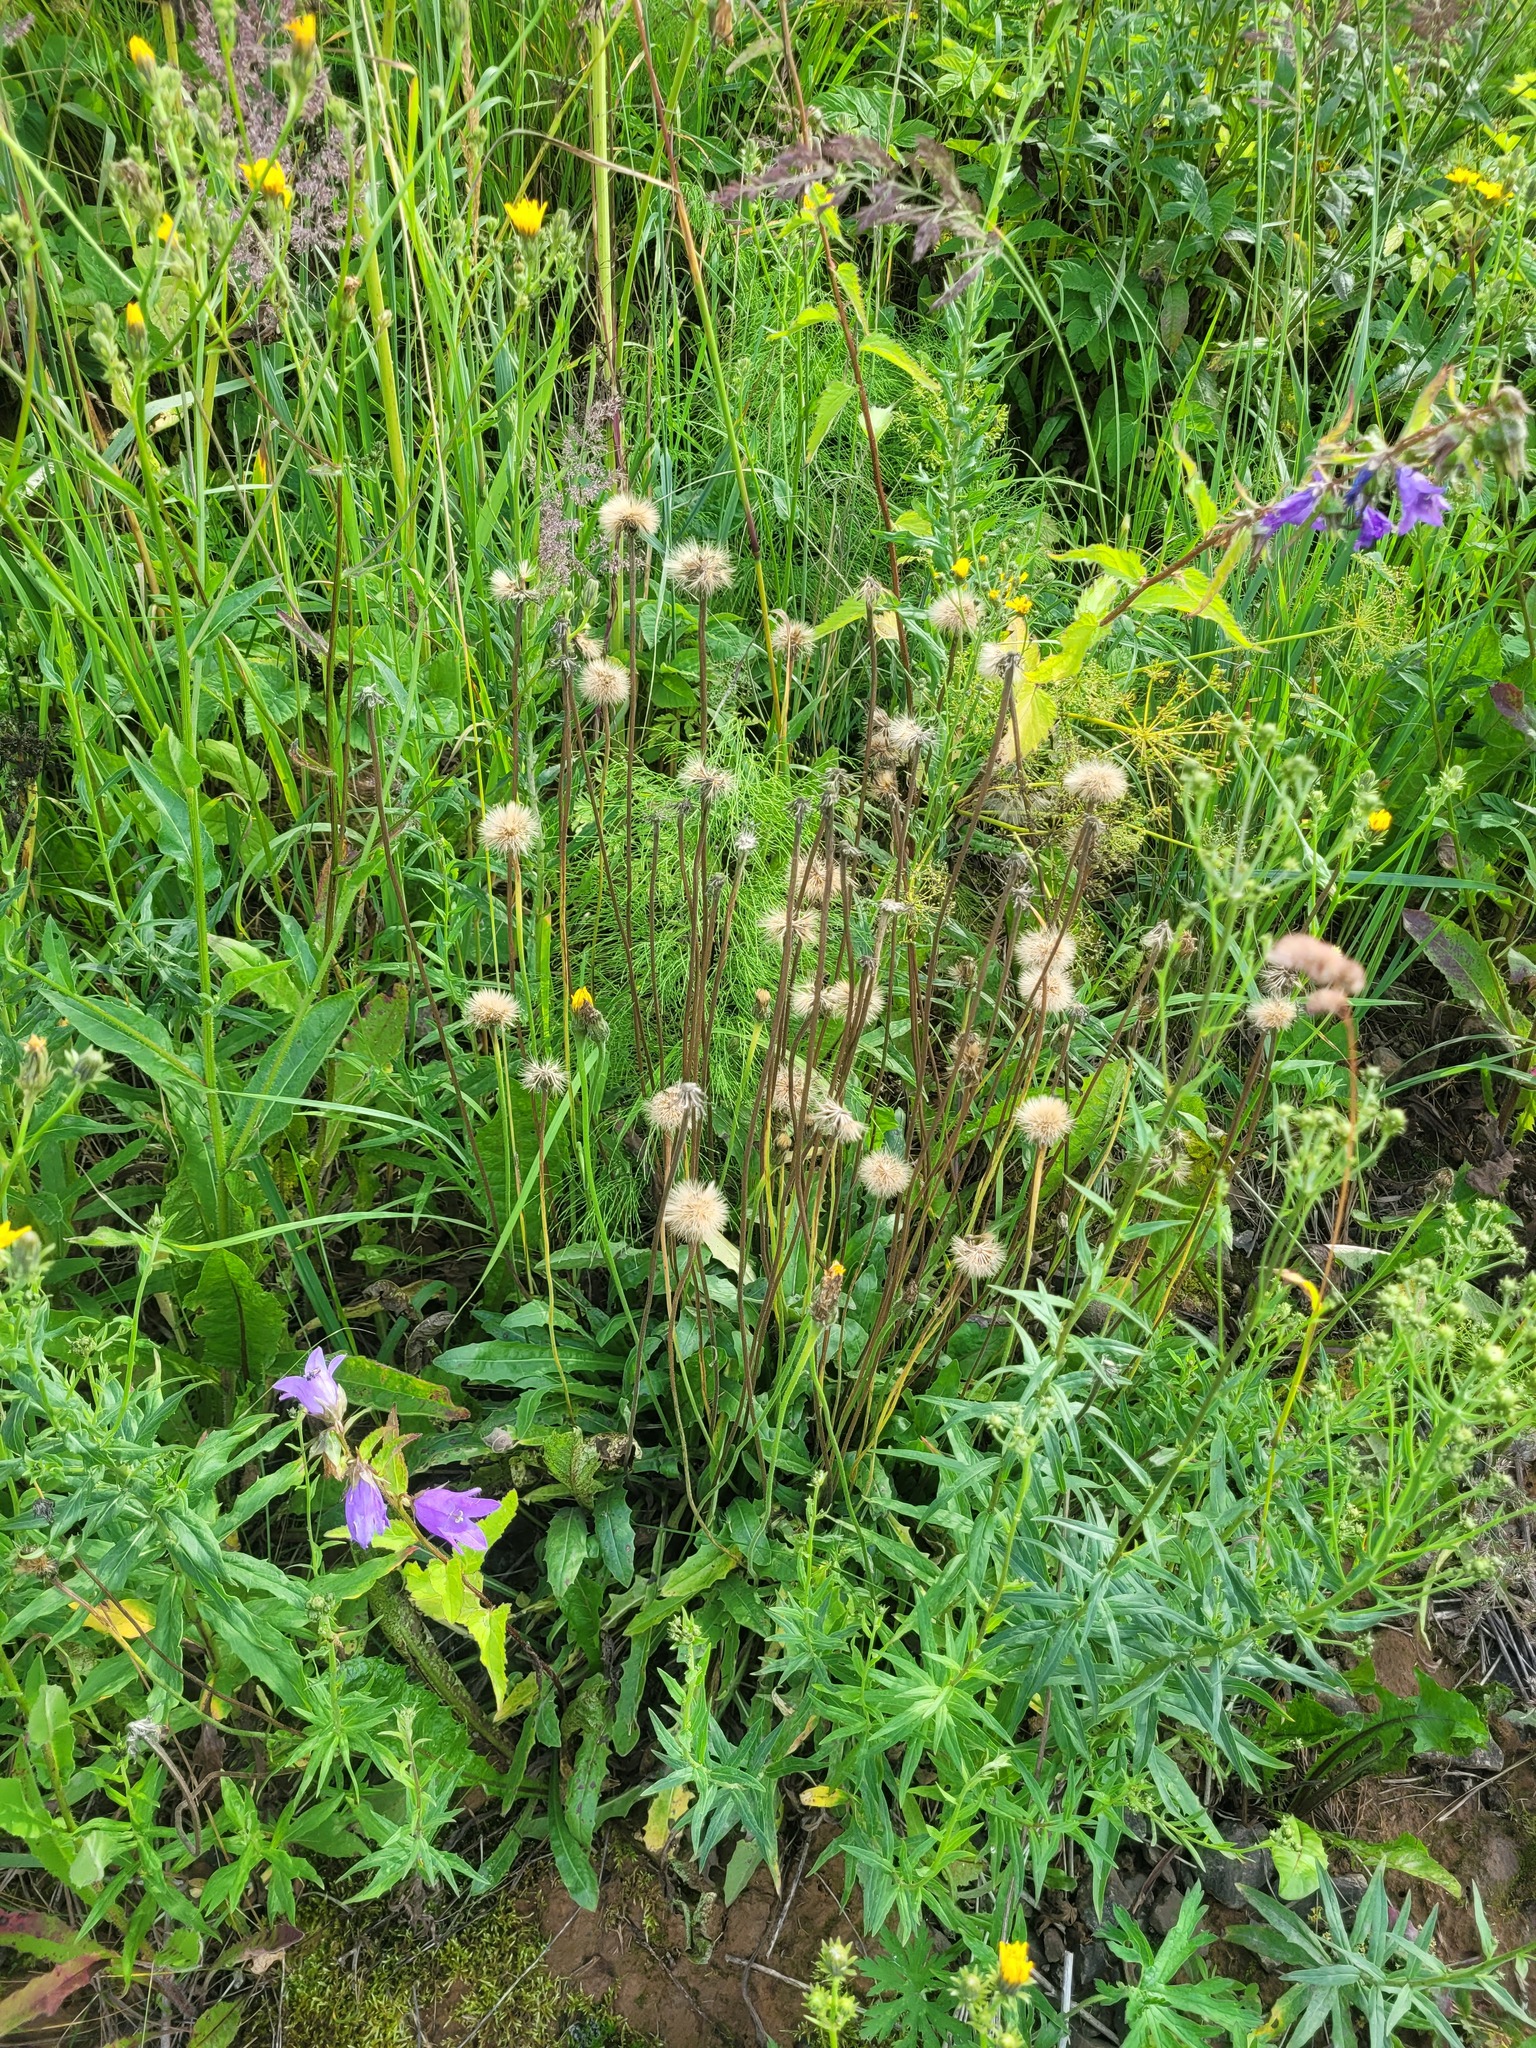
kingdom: Plantae
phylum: Tracheophyta
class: Magnoliopsida
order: Asterales
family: Asteraceae
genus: Leontodon
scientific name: Leontodon hispidus
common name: Rough hawkbit
